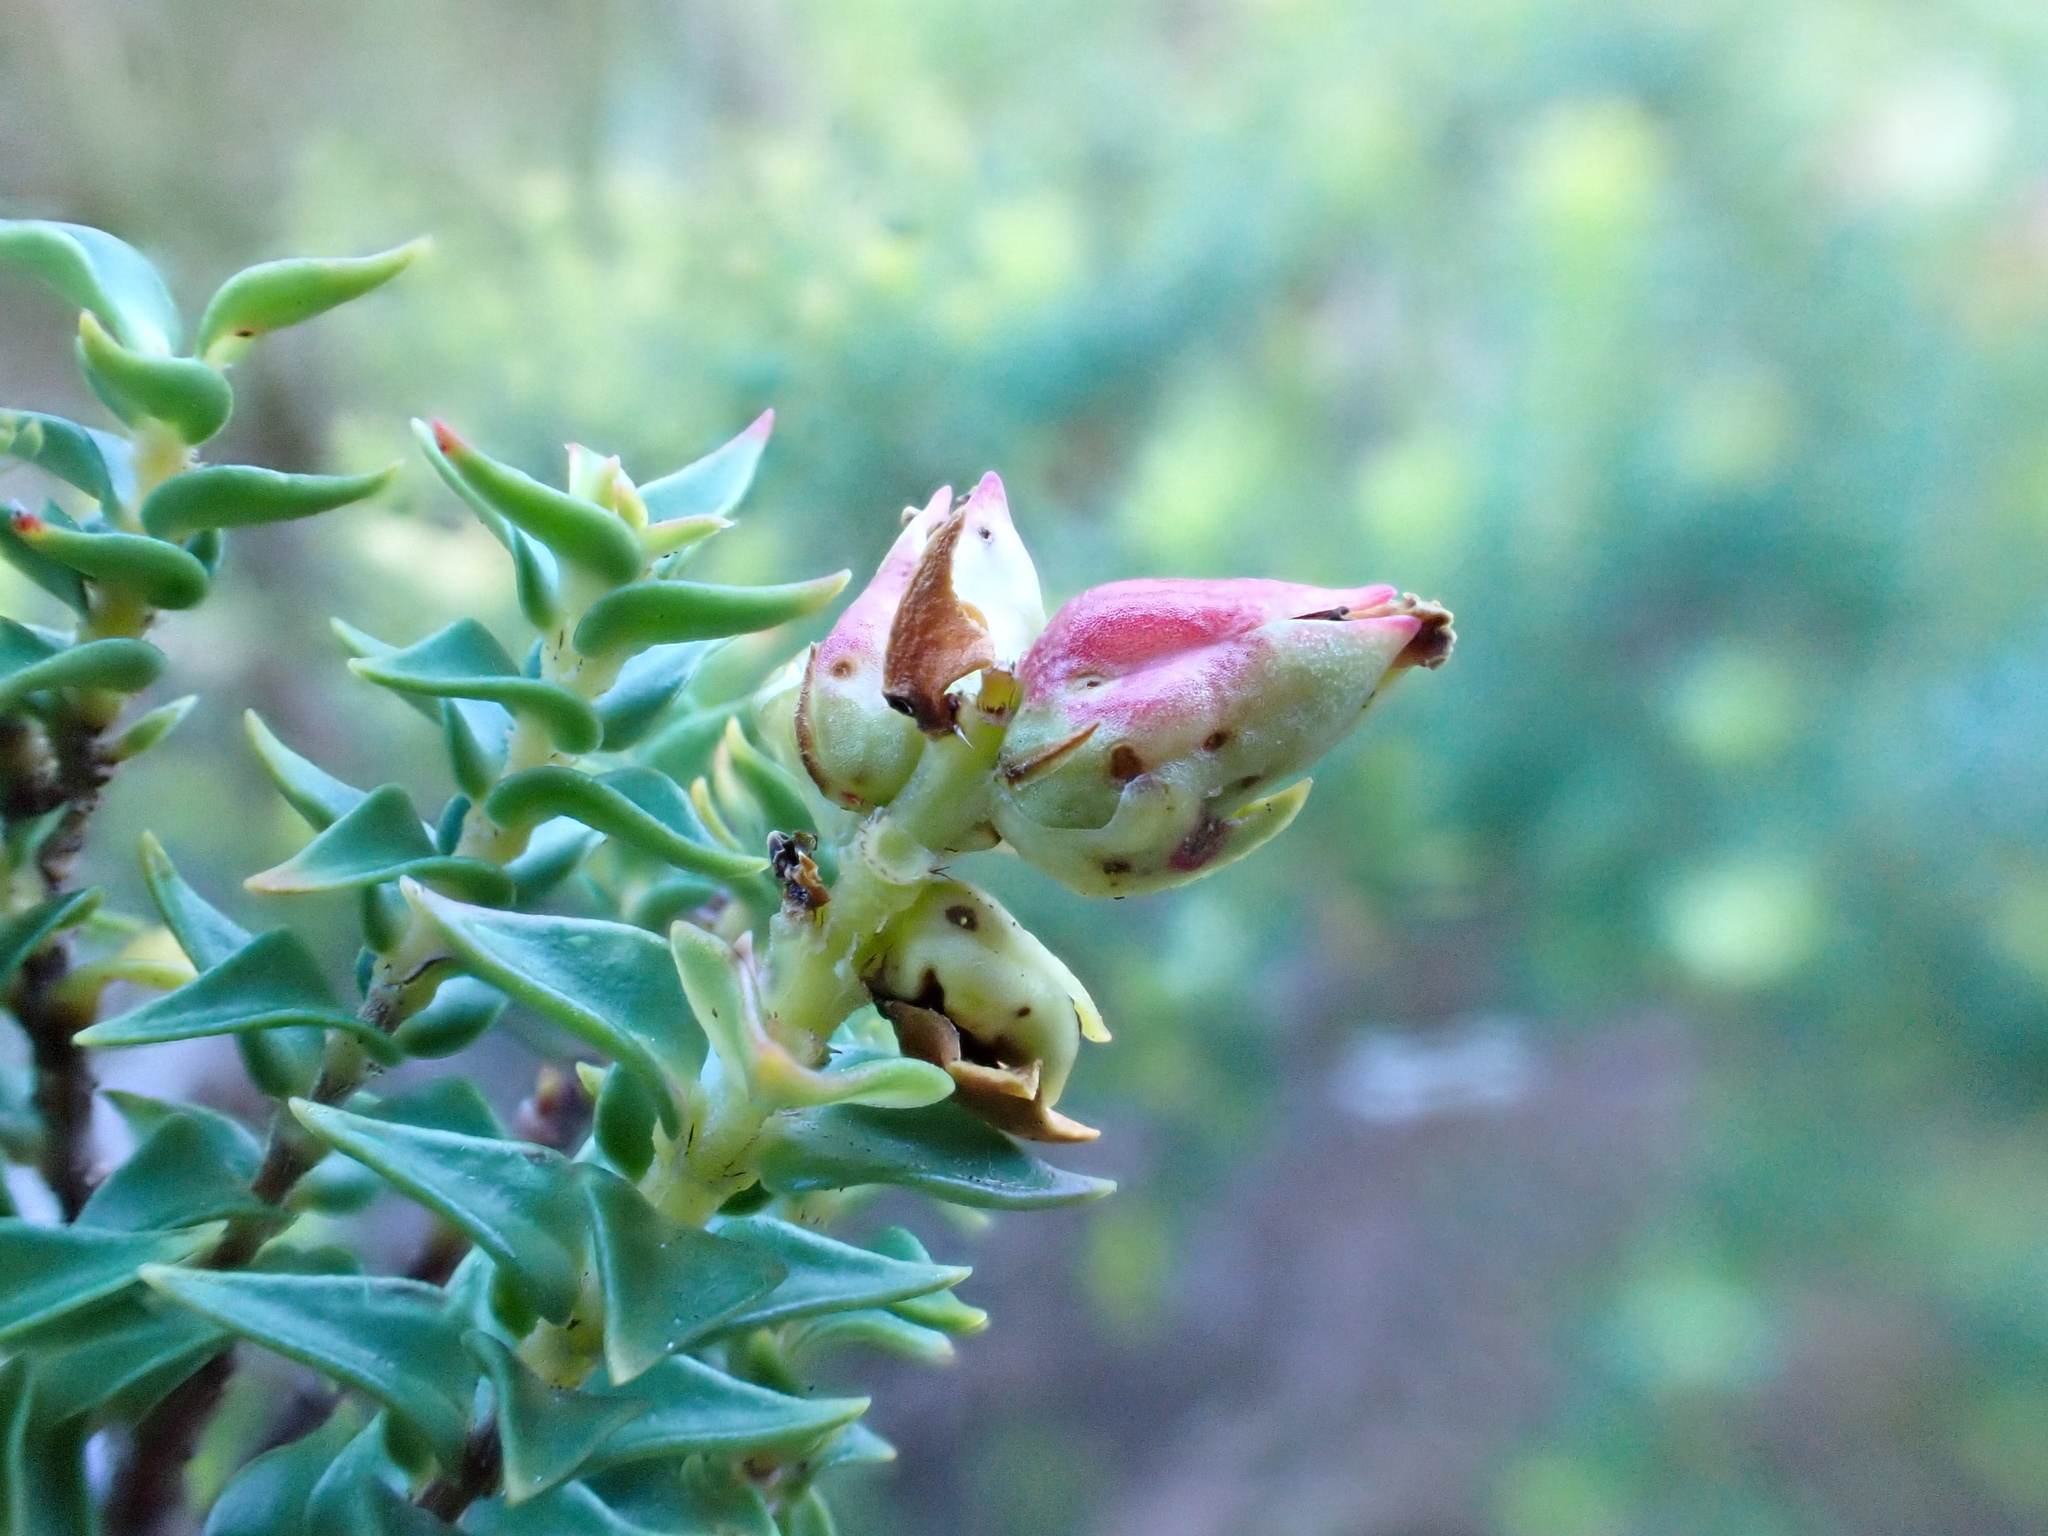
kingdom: Plantae
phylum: Tracheophyta
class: Magnoliopsida
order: Myrtales
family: Penaeaceae
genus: Penaea
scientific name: Penaea mucronata
